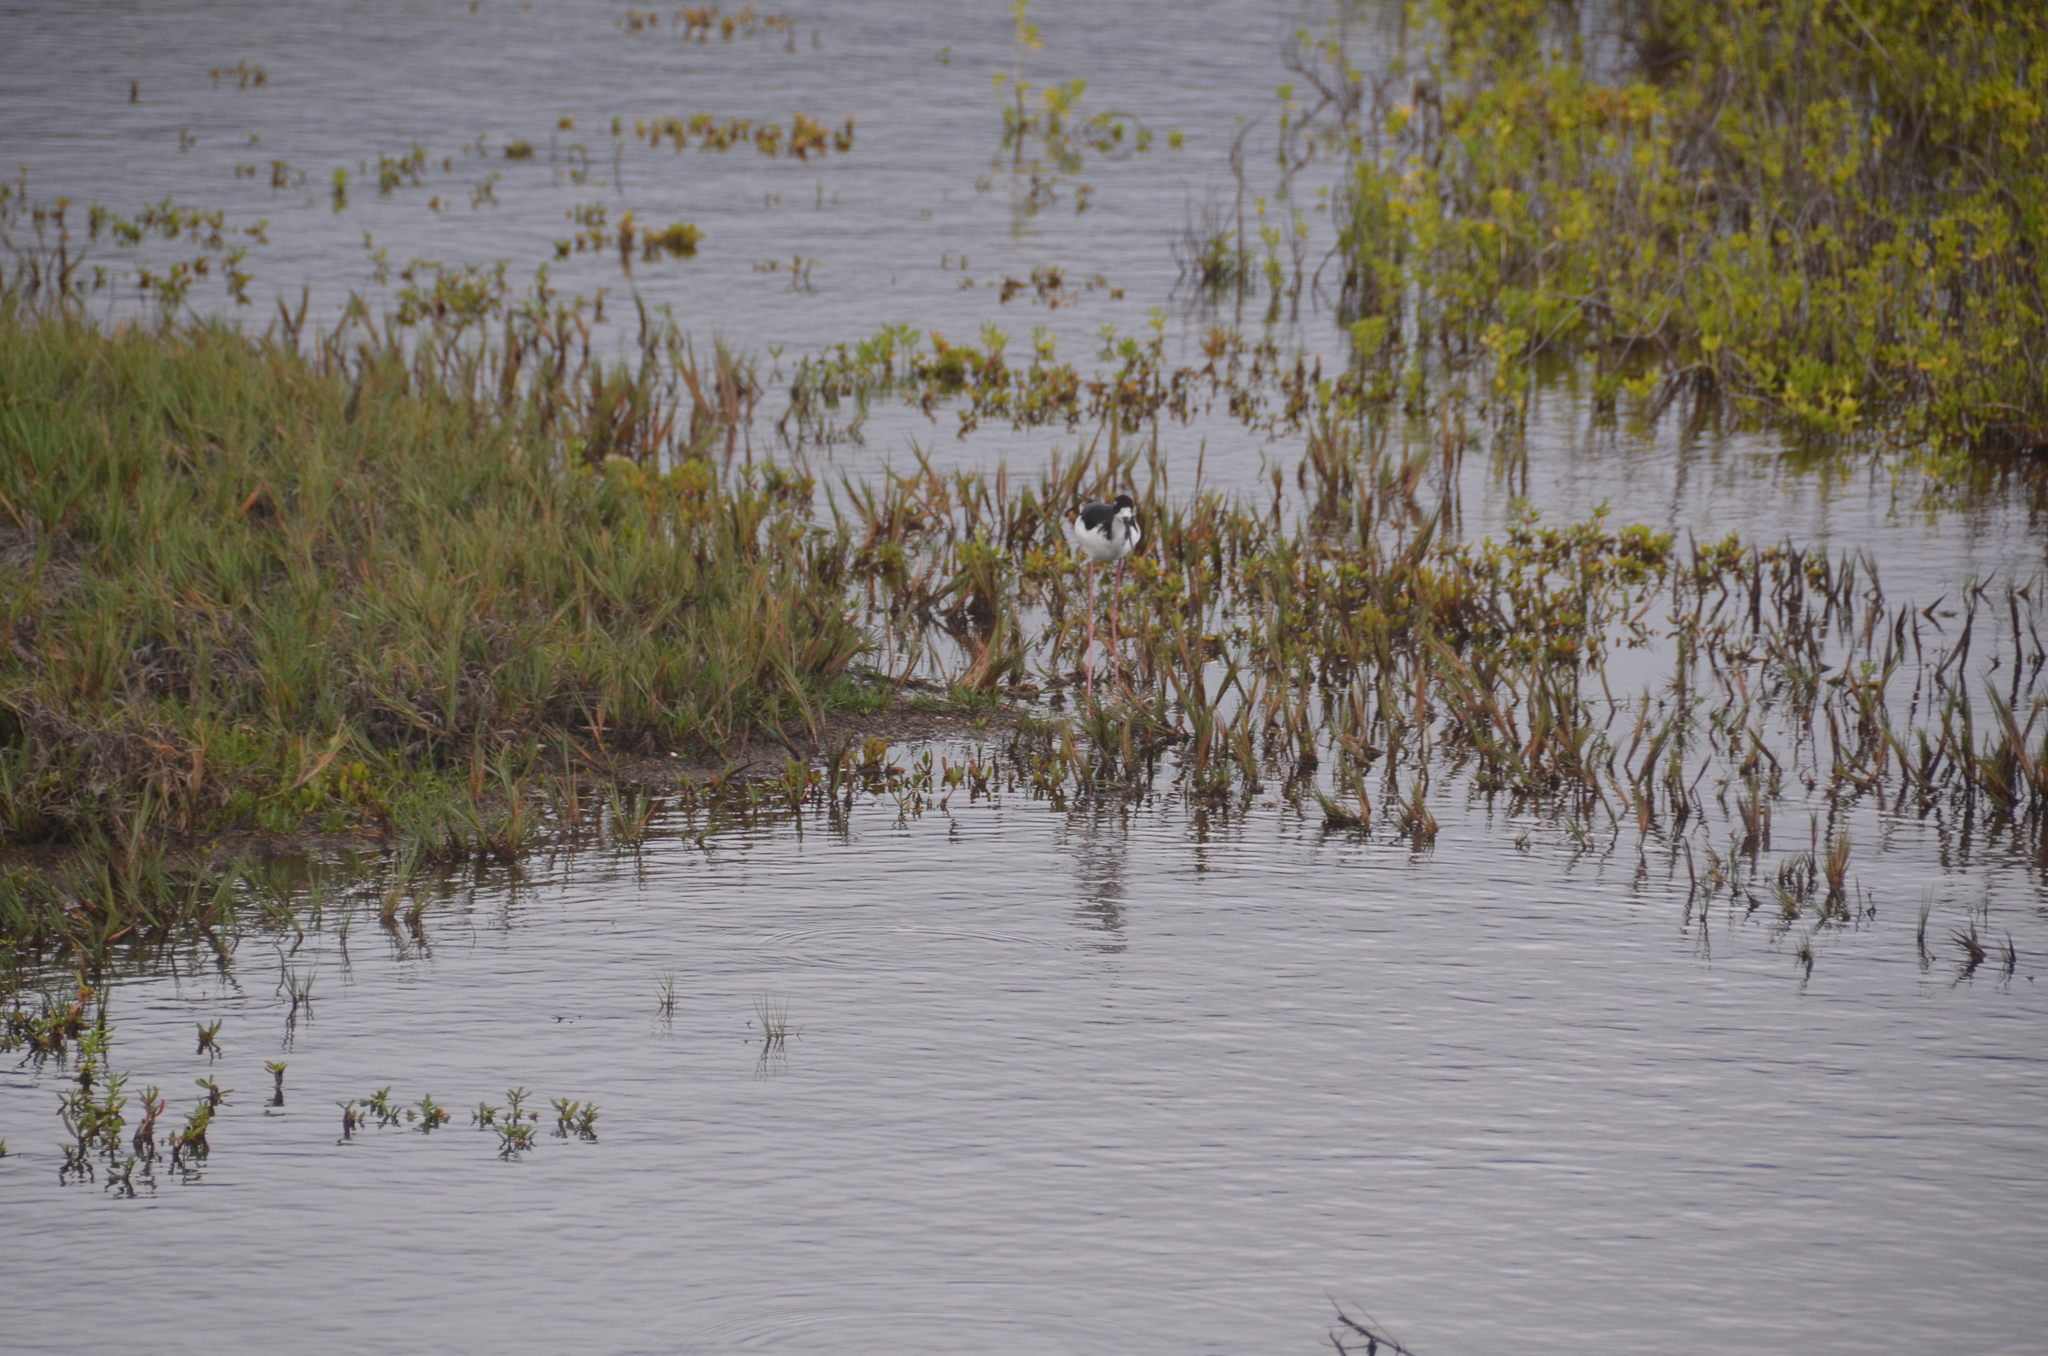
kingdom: Animalia
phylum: Chordata
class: Aves
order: Charadriiformes
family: Recurvirostridae
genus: Himantopus
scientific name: Himantopus mexicanus
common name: Black-necked stilt
